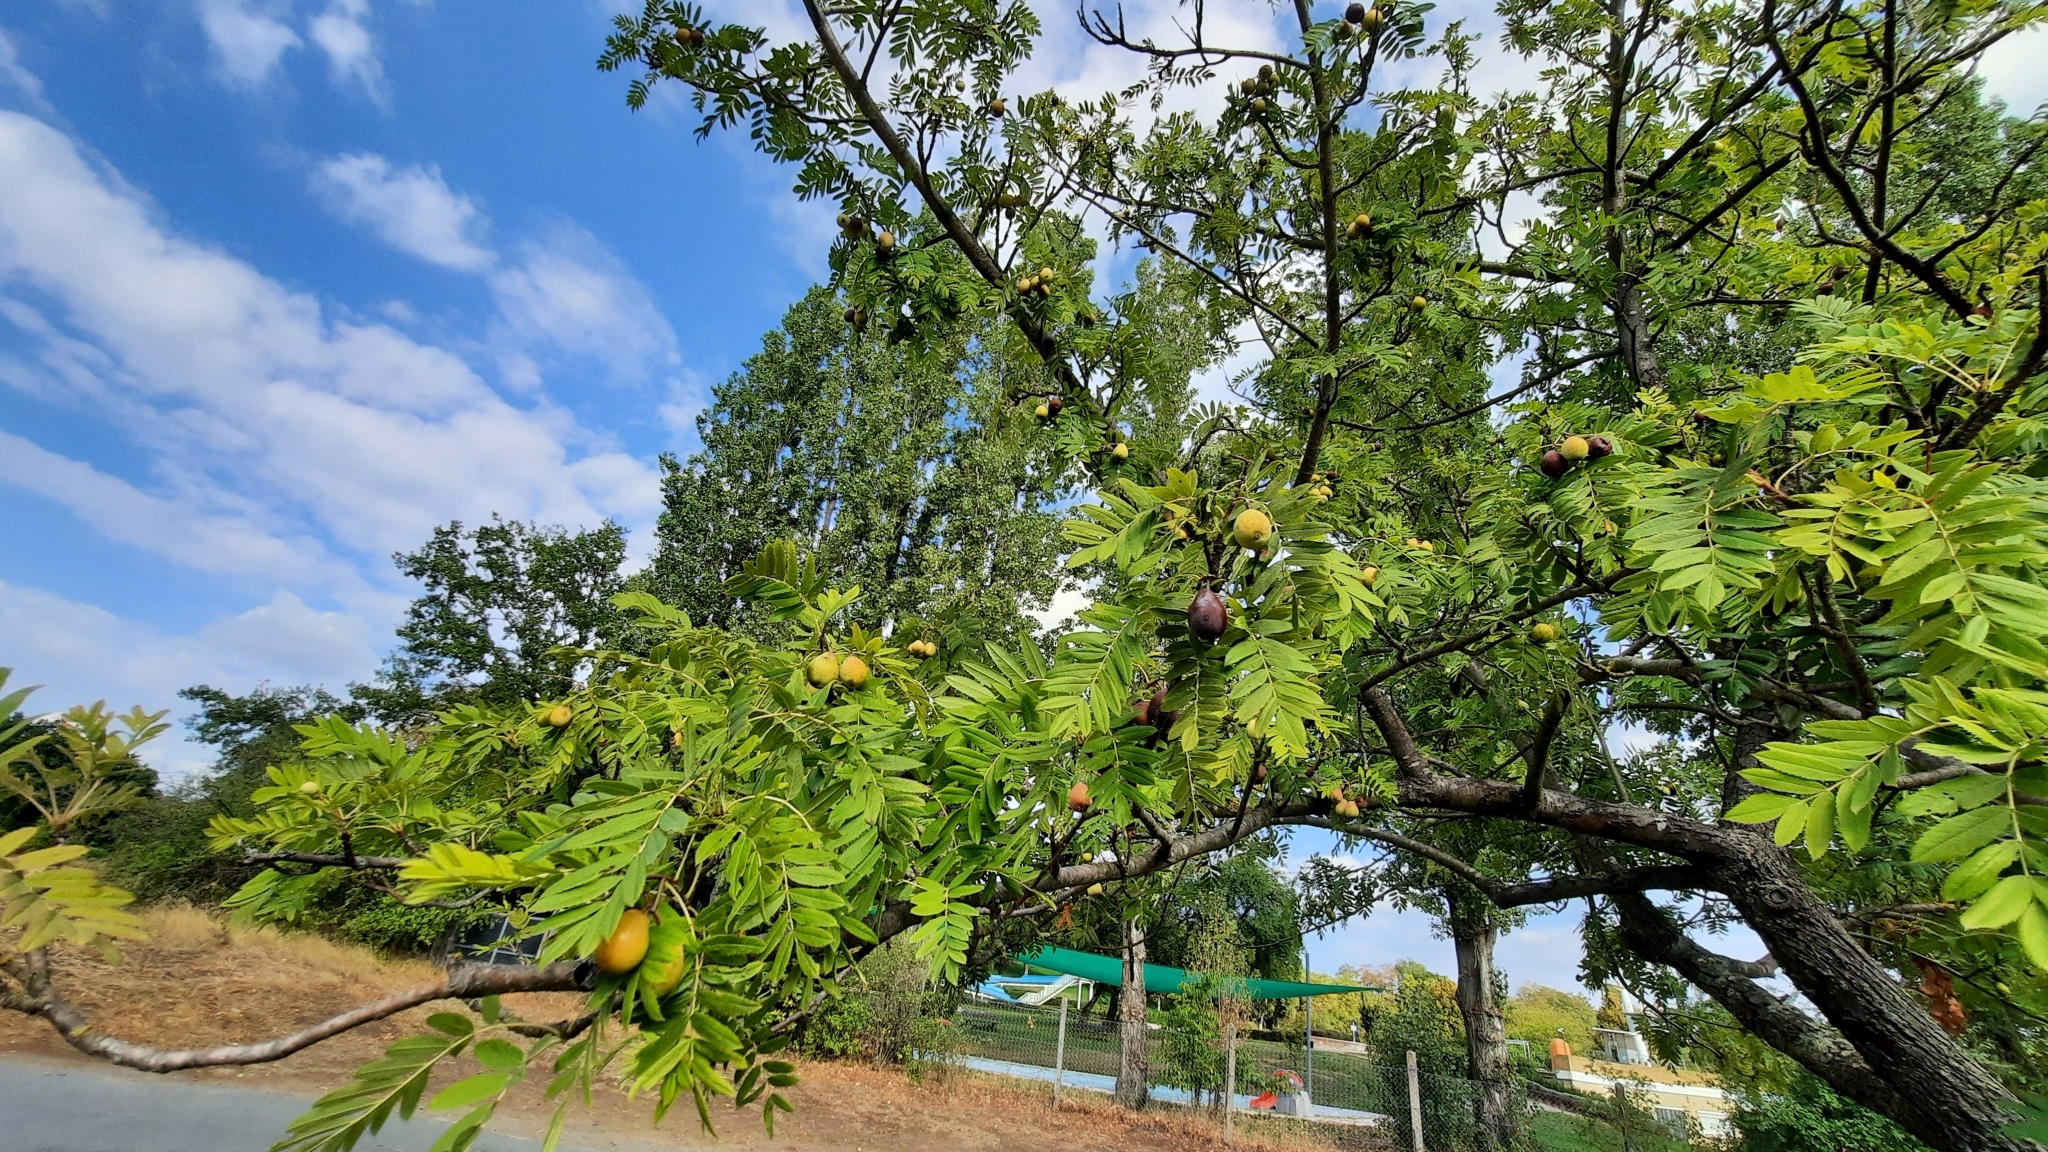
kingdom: Plantae
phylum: Tracheophyta
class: Magnoliopsida
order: Rosales
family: Rosaceae
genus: Cormus
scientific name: Cormus domestica
